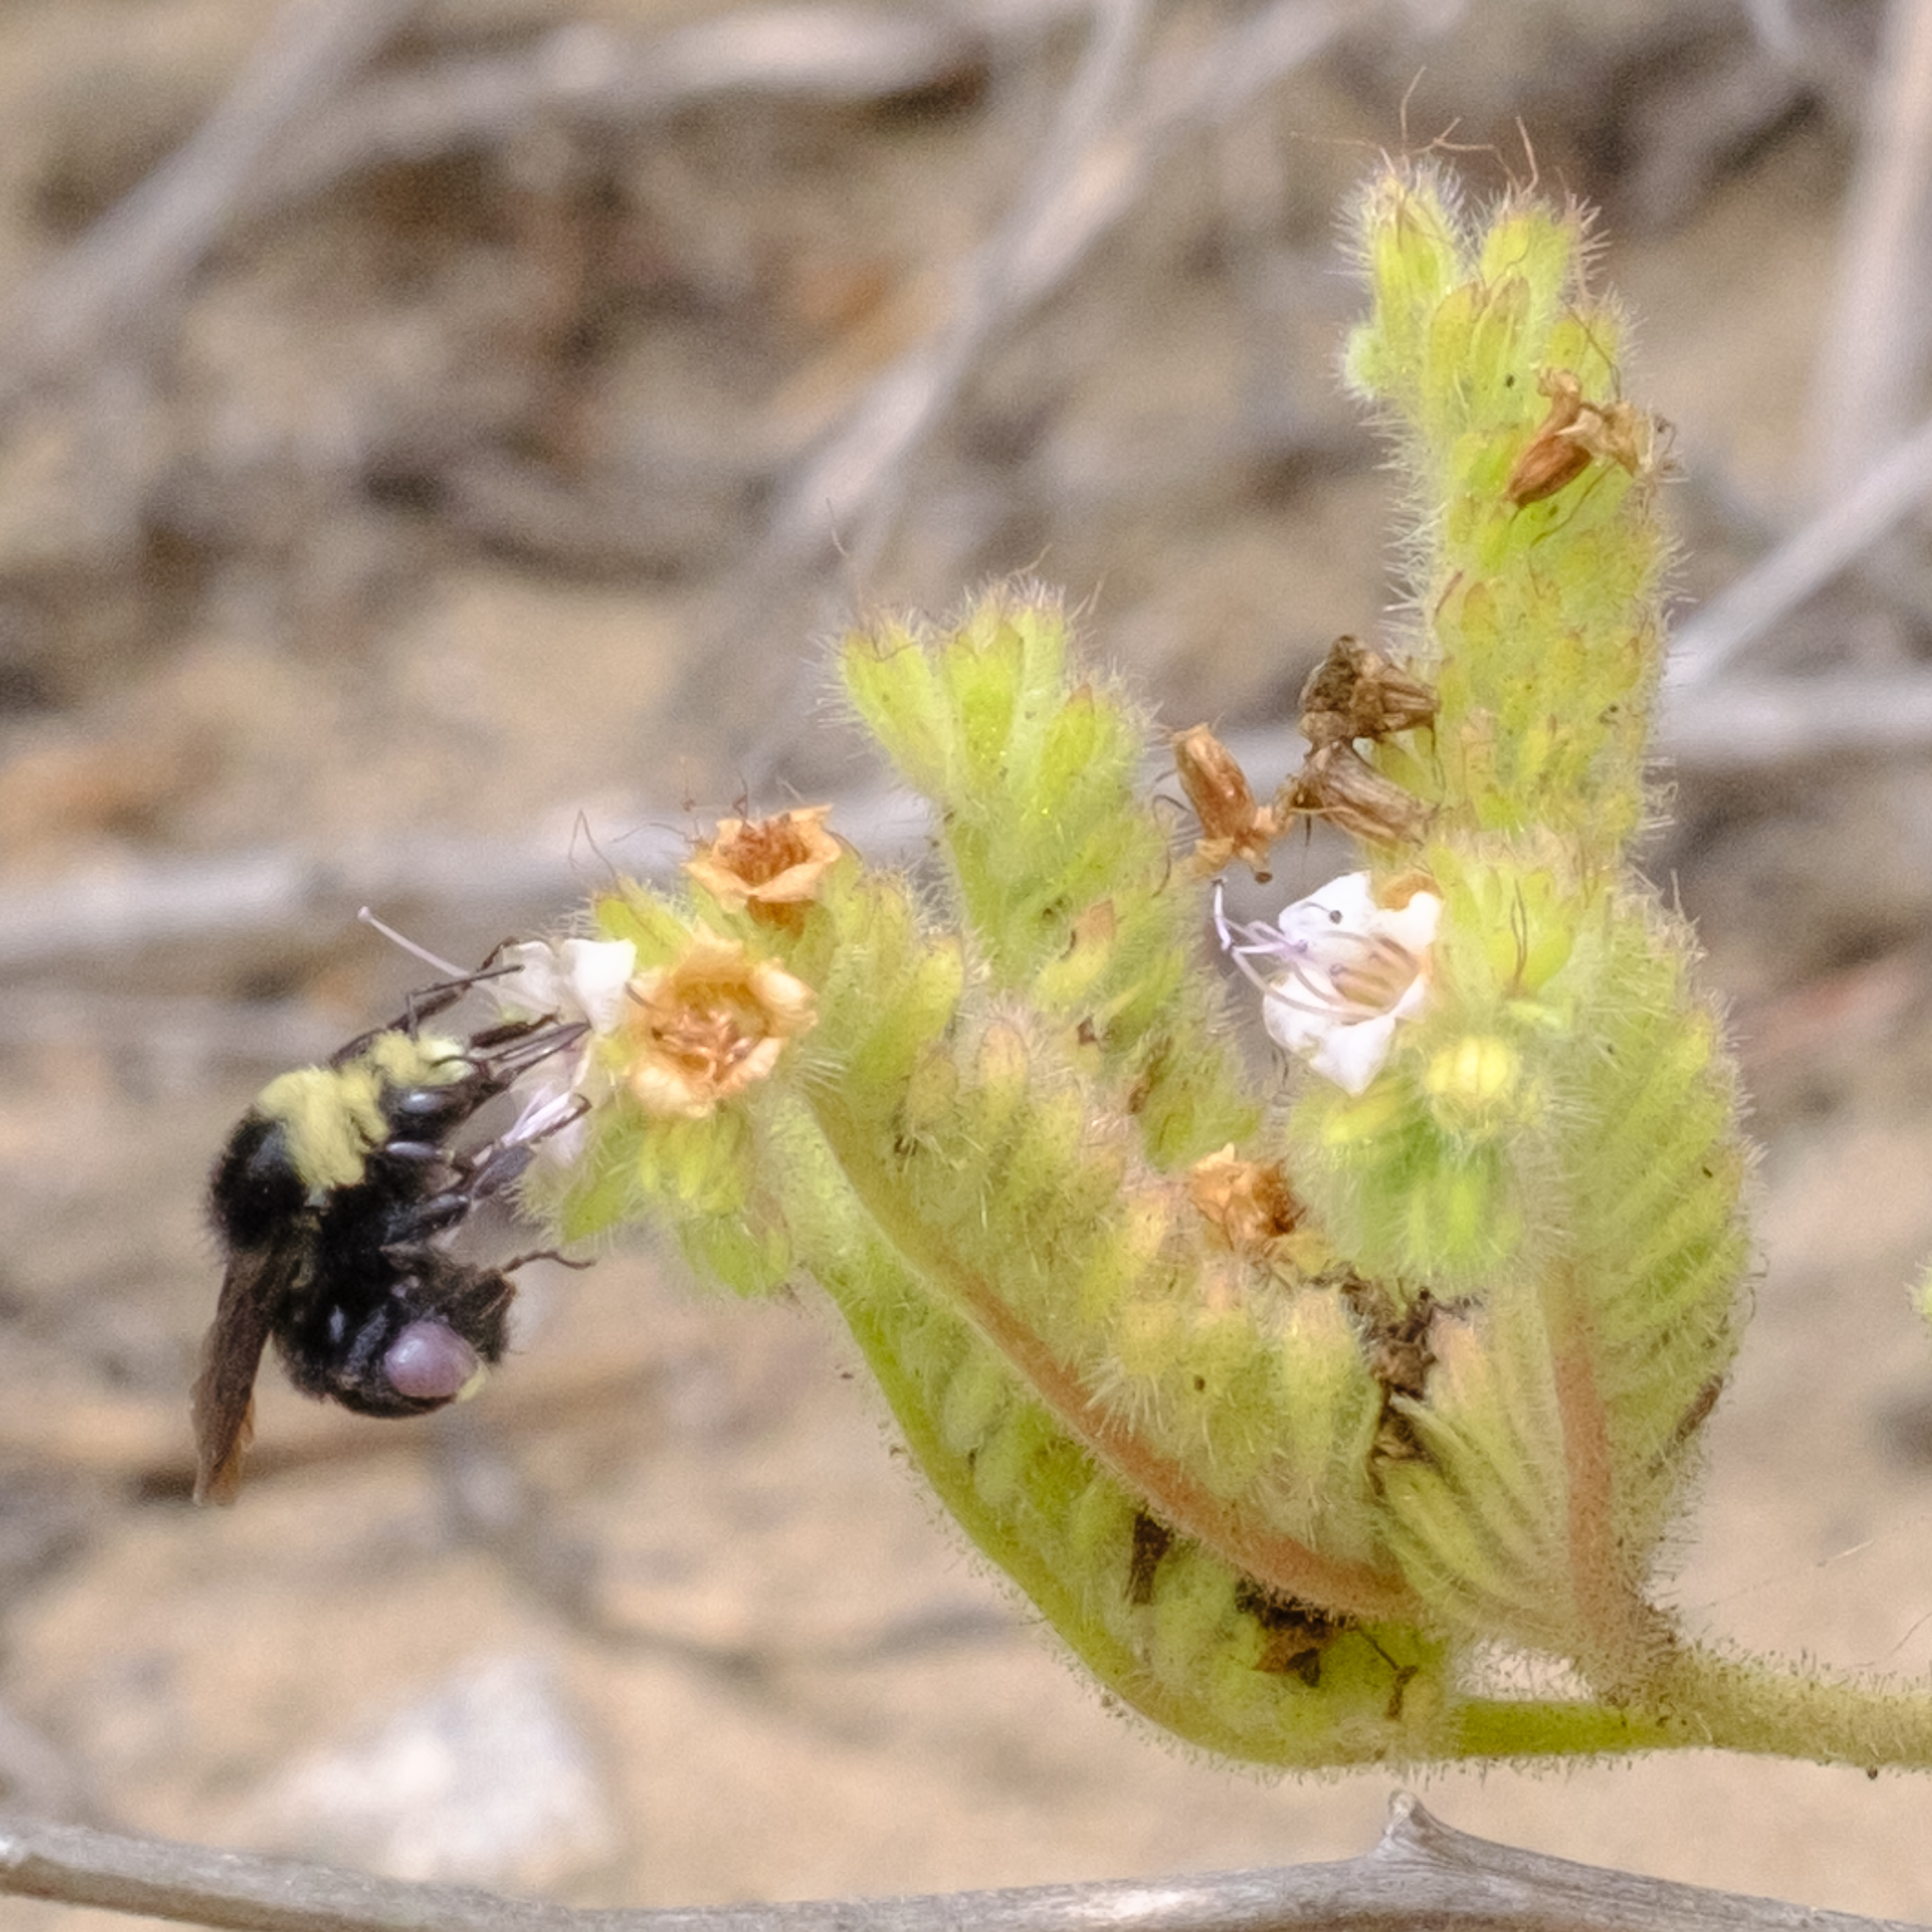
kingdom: Plantae
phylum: Tracheophyta
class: Magnoliopsida
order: Boraginales
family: Hydrophyllaceae
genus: Phacelia
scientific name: Phacelia ramosissima
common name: Branching phacelia
